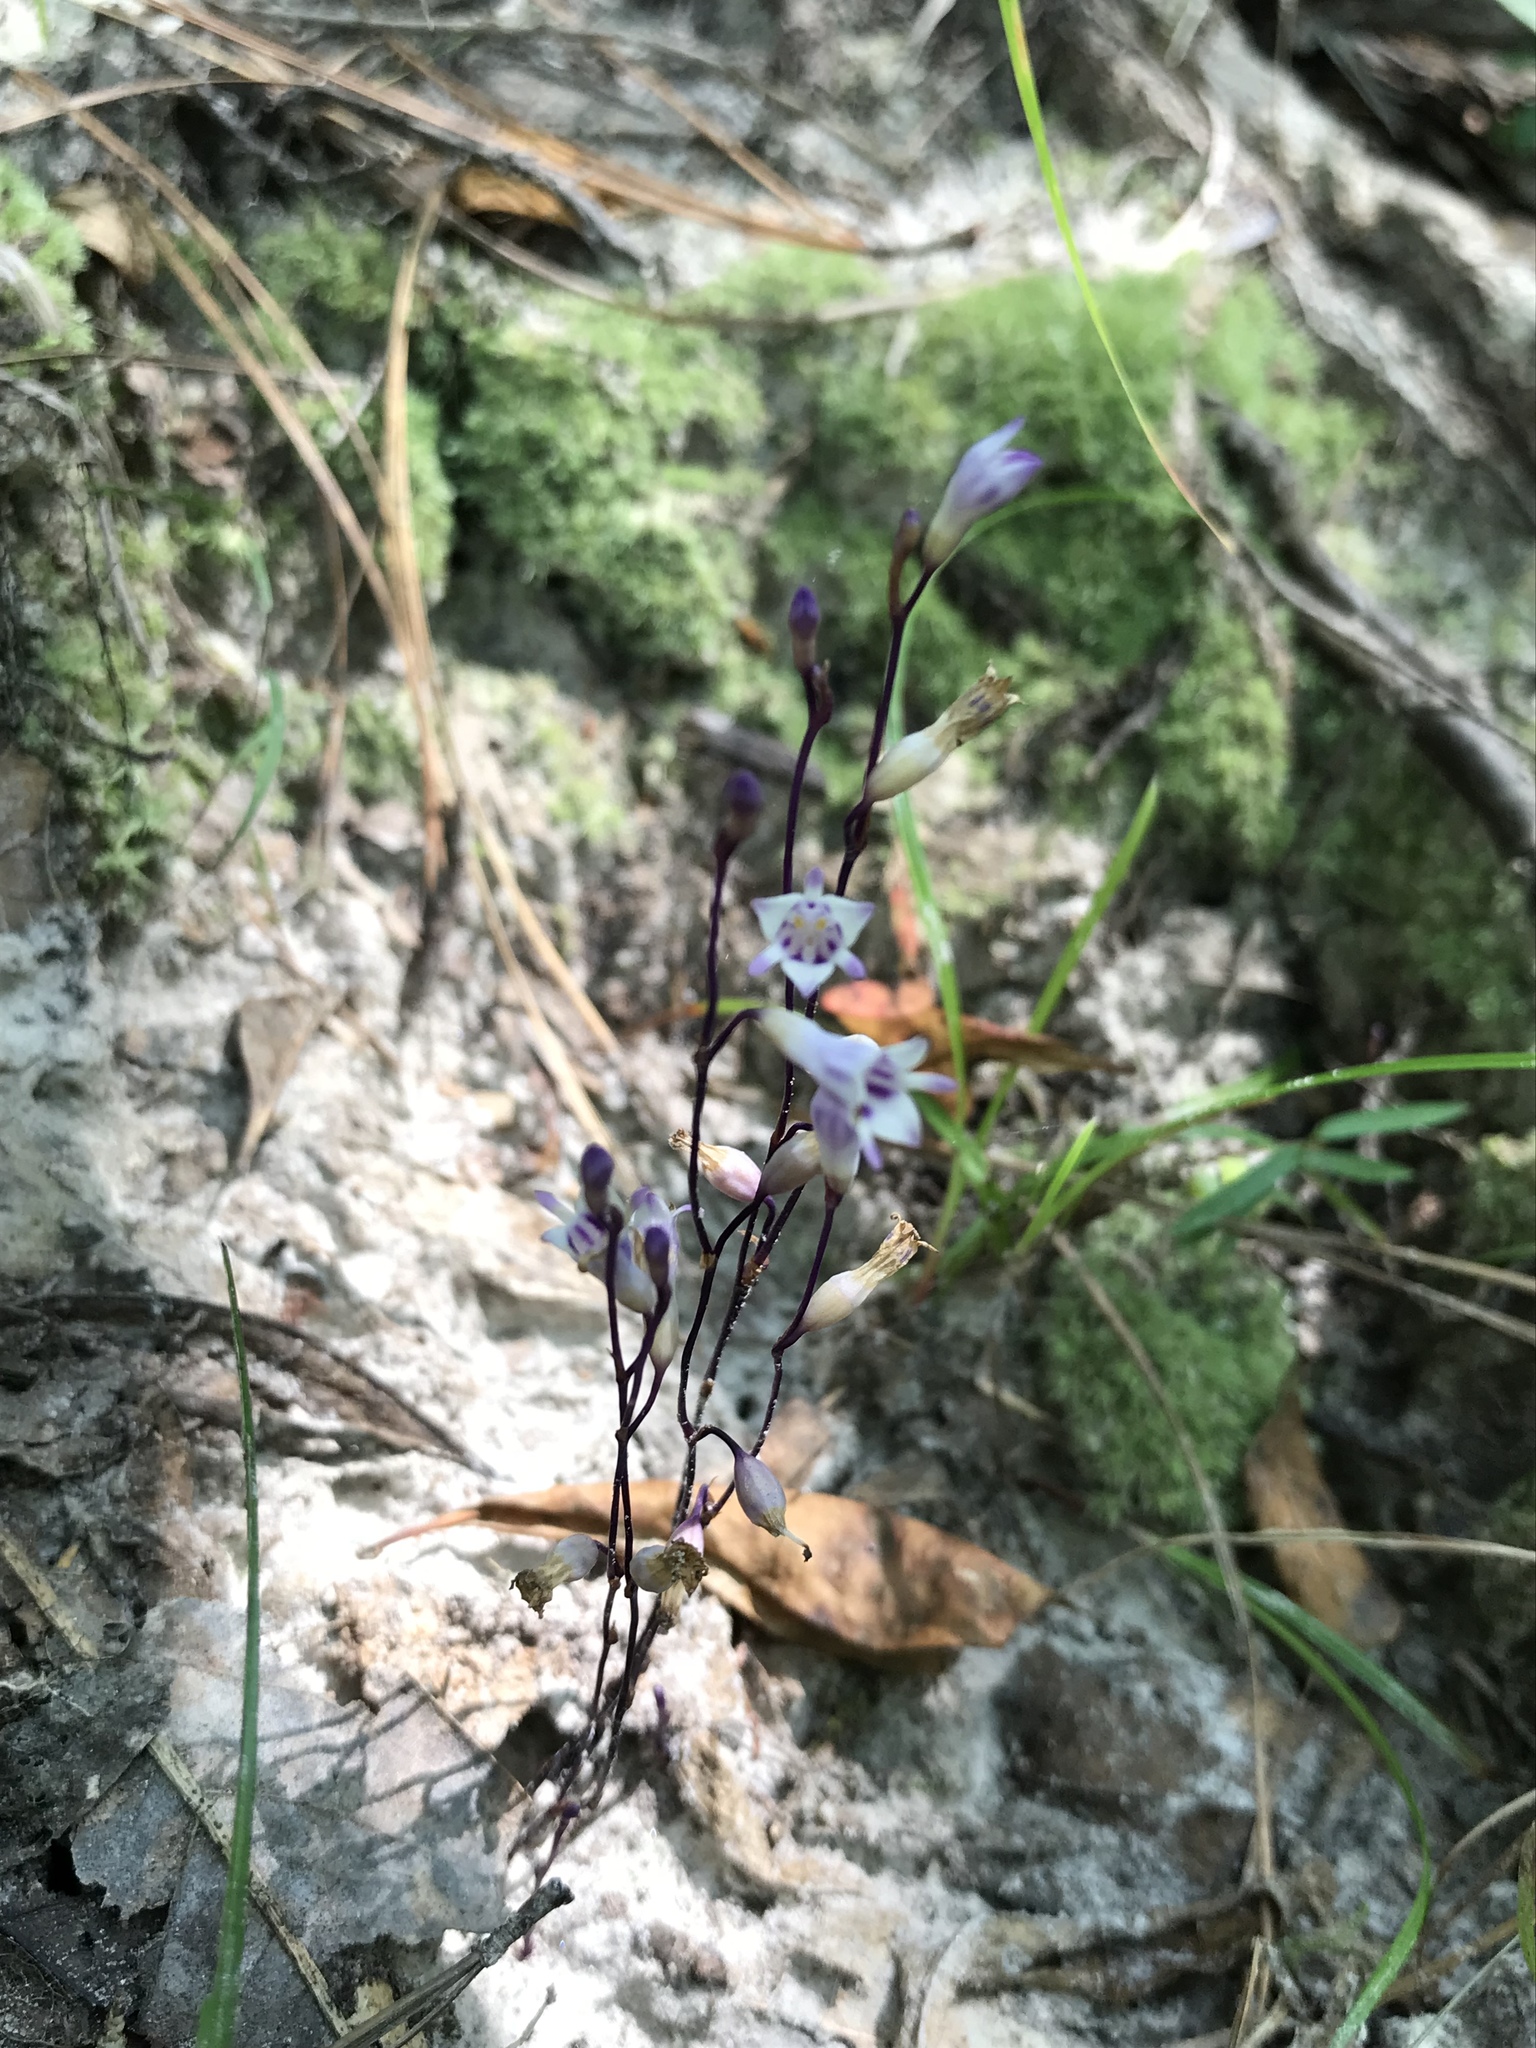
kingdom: Plantae
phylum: Tracheophyta
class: Liliopsida
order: Dioscoreales
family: Burmanniaceae
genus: Apteria
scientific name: Apteria aphylla
